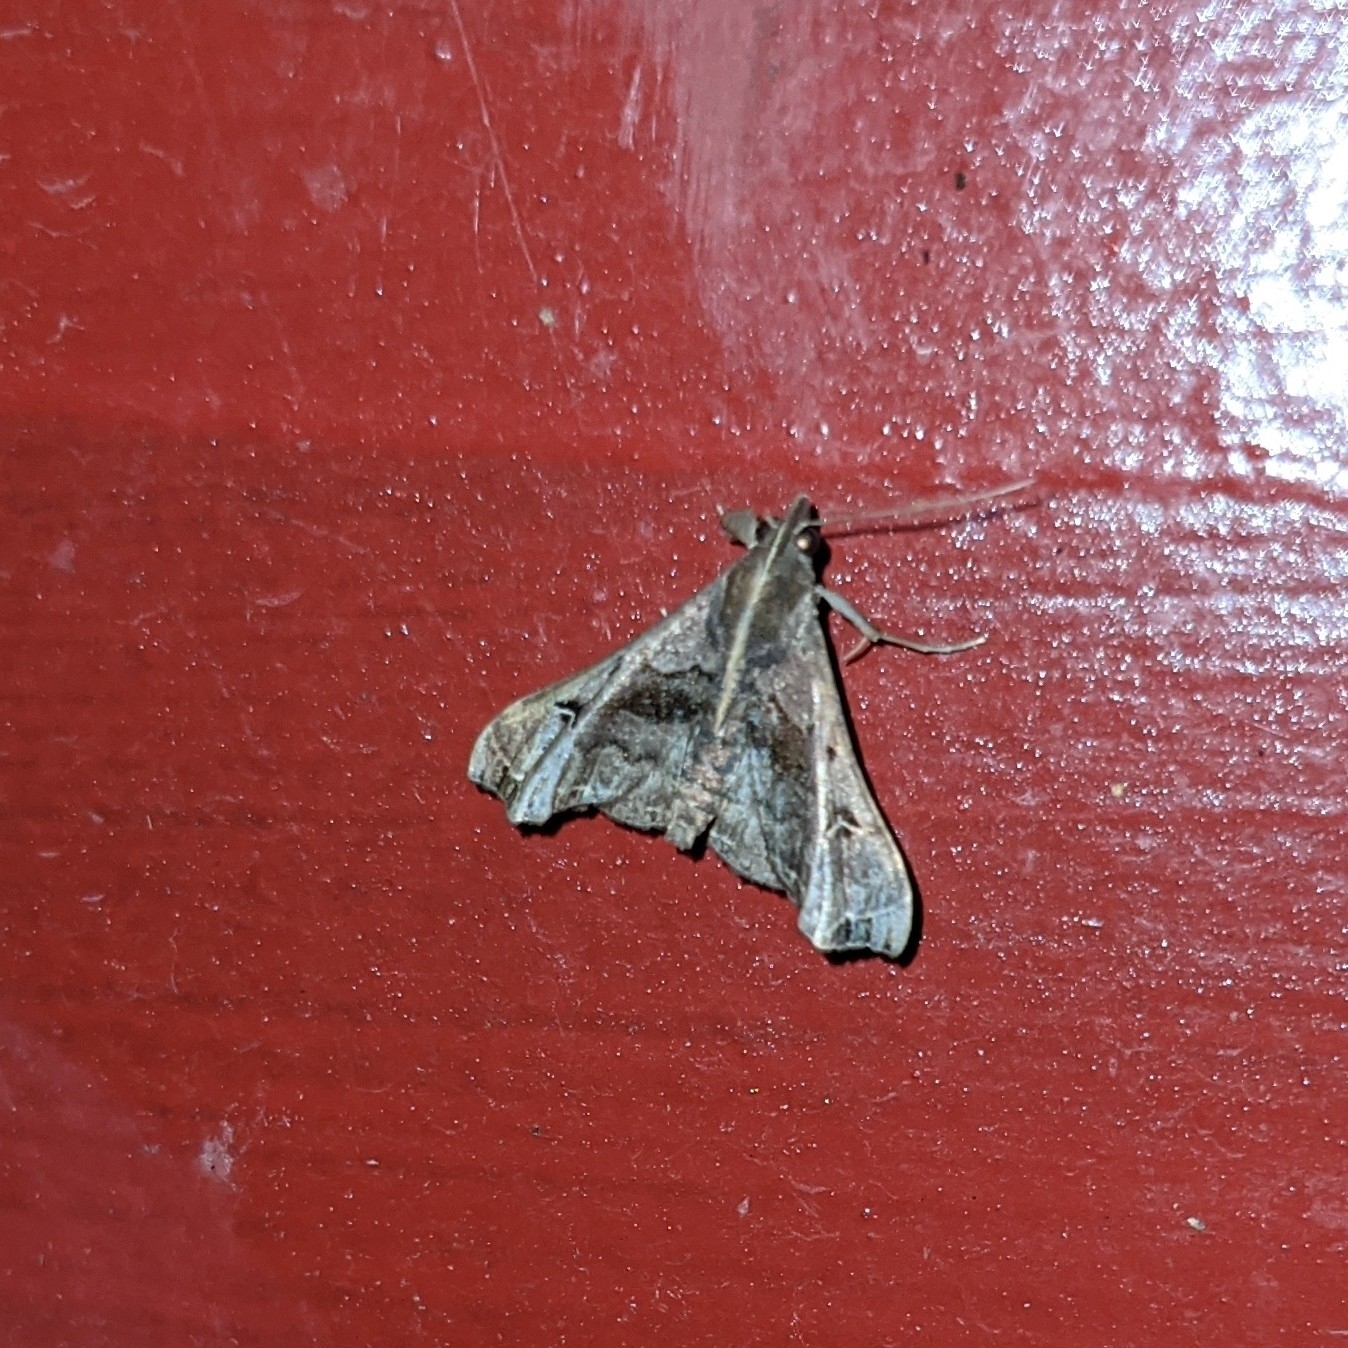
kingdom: Animalia
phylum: Arthropoda
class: Insecta
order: Lepidoptera
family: Erebidae
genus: Palthis
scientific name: Palthis asopialis
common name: Faint-spotted palthis moth
